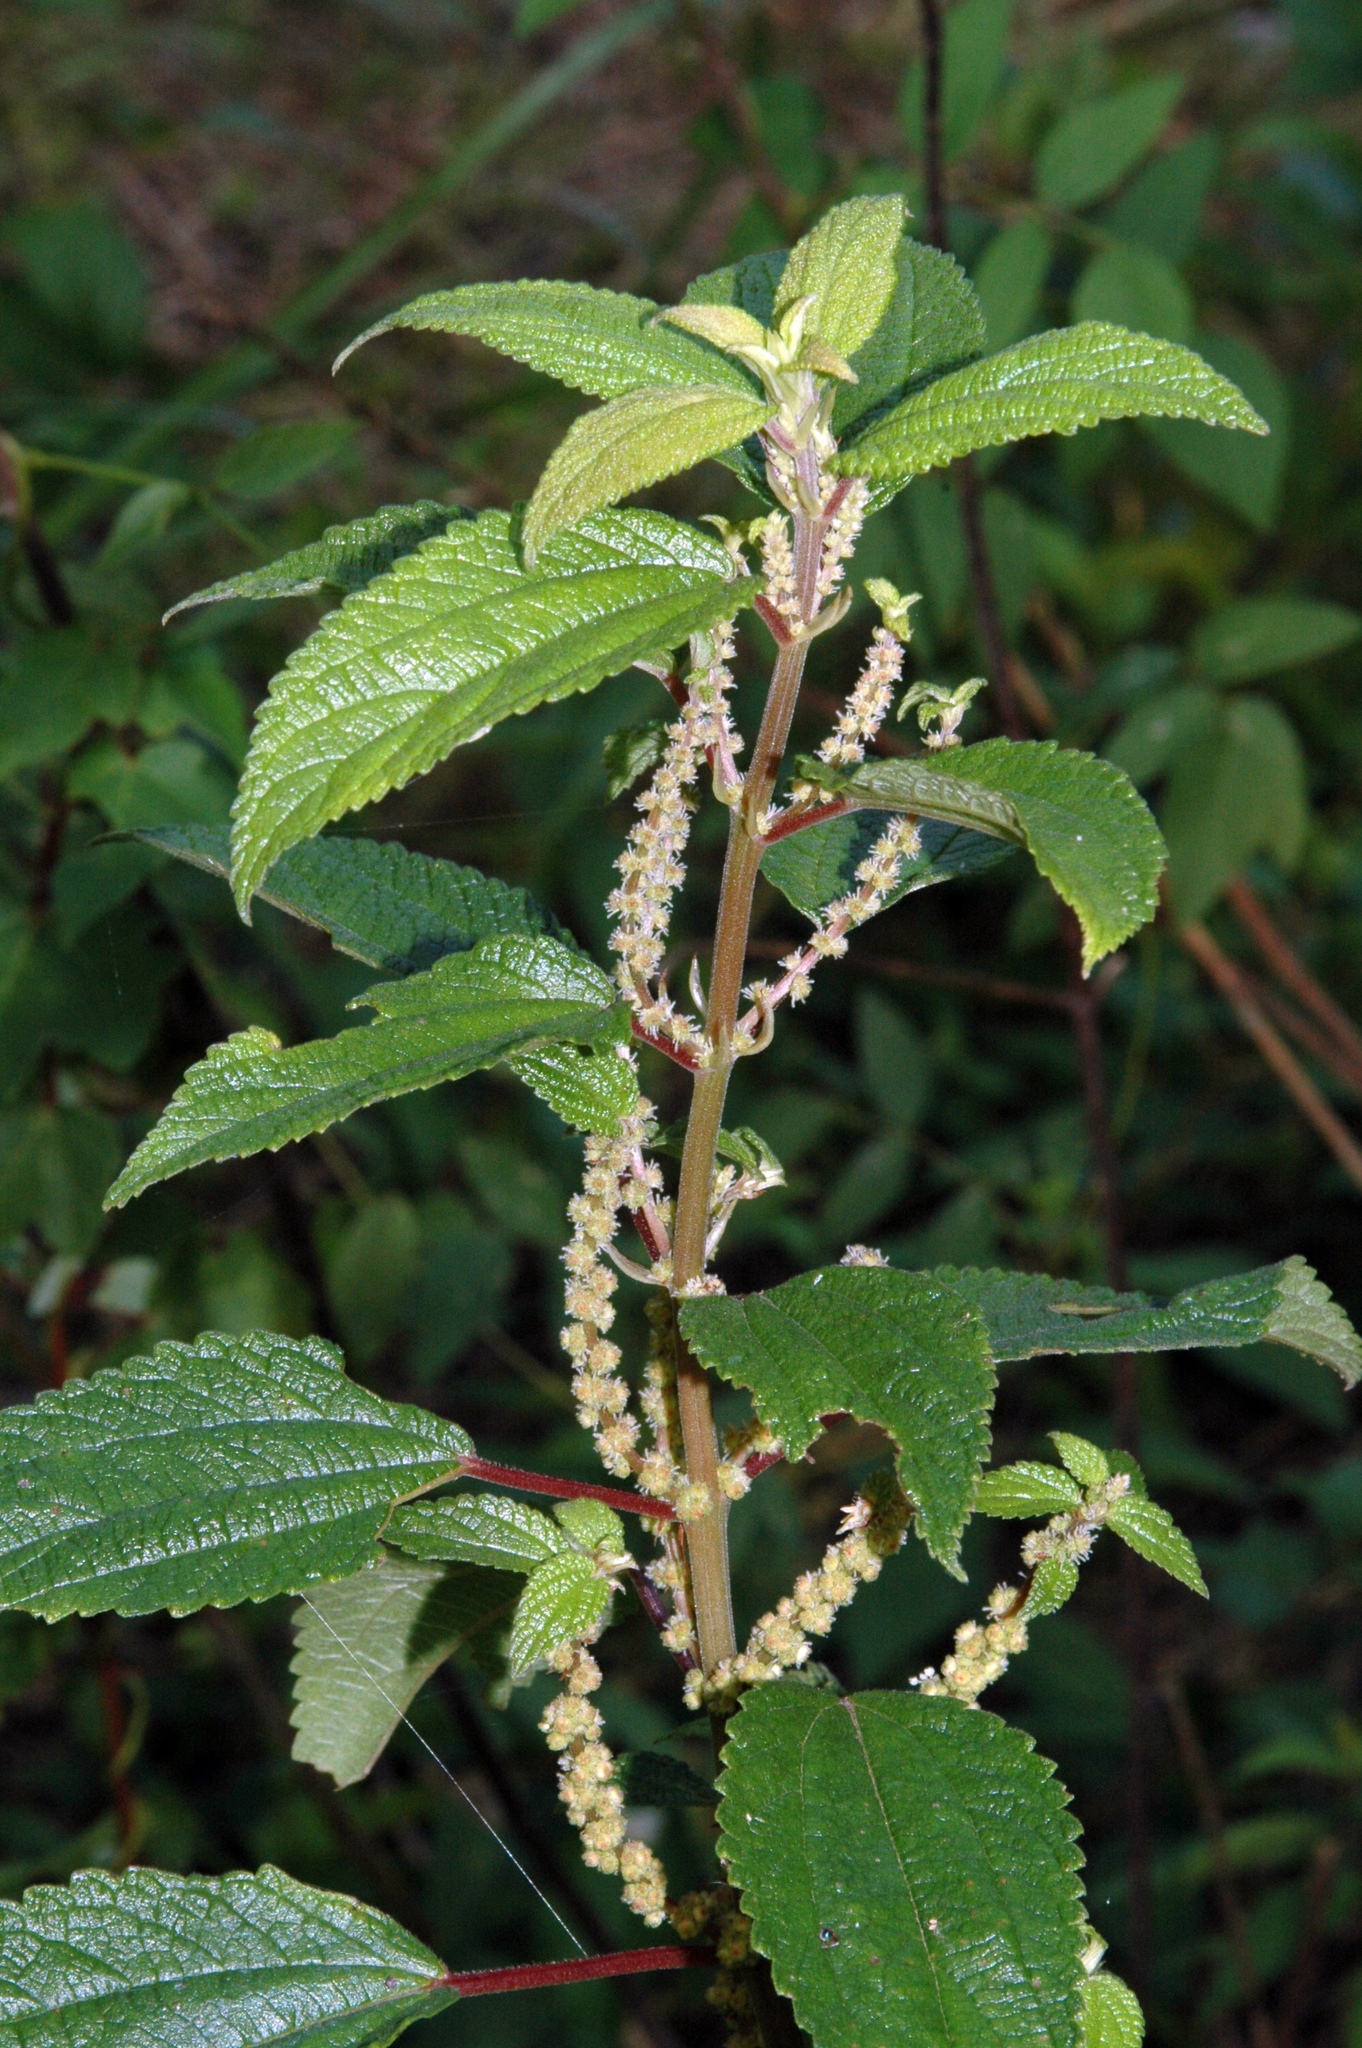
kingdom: Plantae
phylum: Tracheophyta
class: Magnoliopsida
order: Rosales
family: Urticaceae
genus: Boehmeria
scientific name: Boehmeria cylindrica
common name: Bog-hemp
